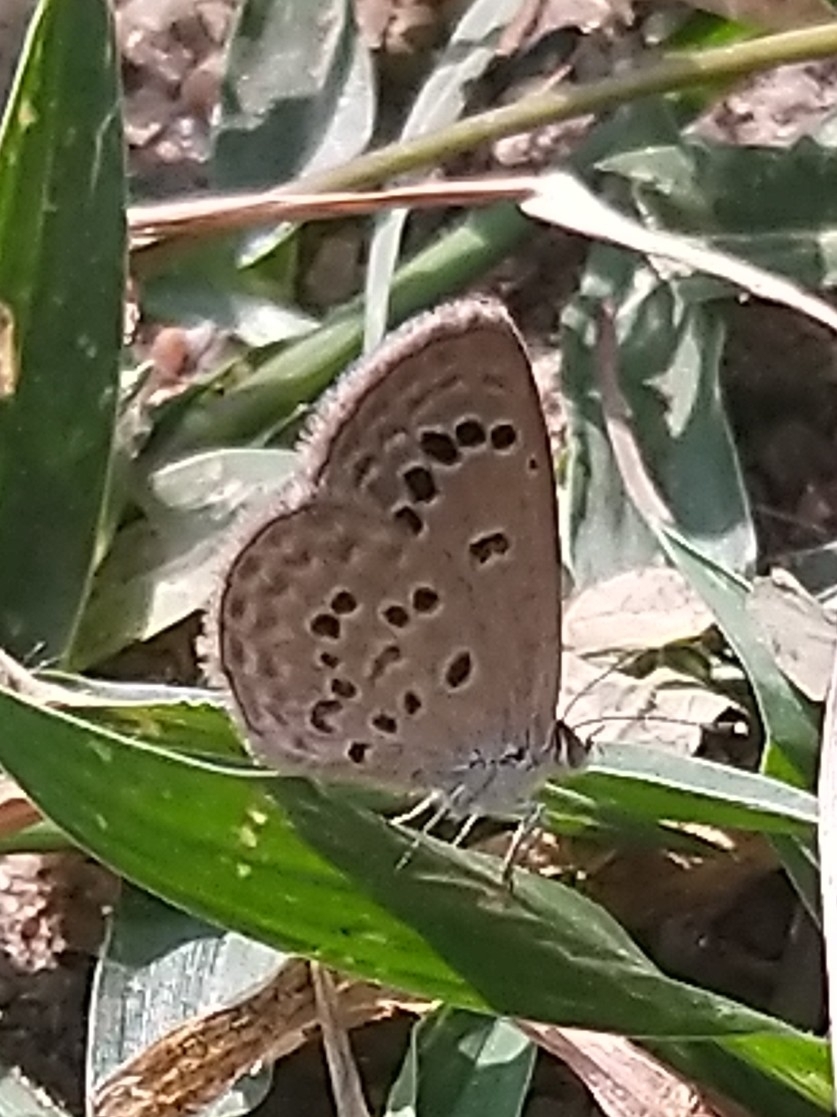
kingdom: Animalia
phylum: Arthropoda
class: Insecta
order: Lepidoptera
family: Lycaenidae
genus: Zizina
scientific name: Zizina otis
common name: Lesser grass blue
